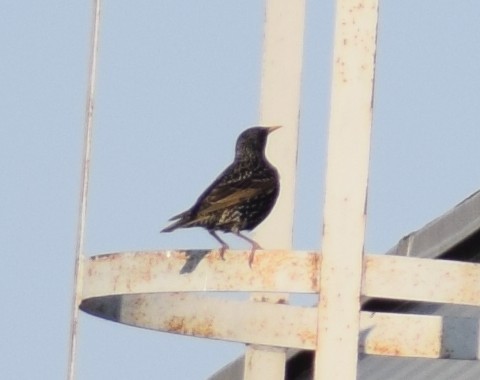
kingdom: Animalia
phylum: Chordata
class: Aves
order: Passeriformes
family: Sturnidae
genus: Sturnus
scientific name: Sturnus vulgaris
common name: Common starling
